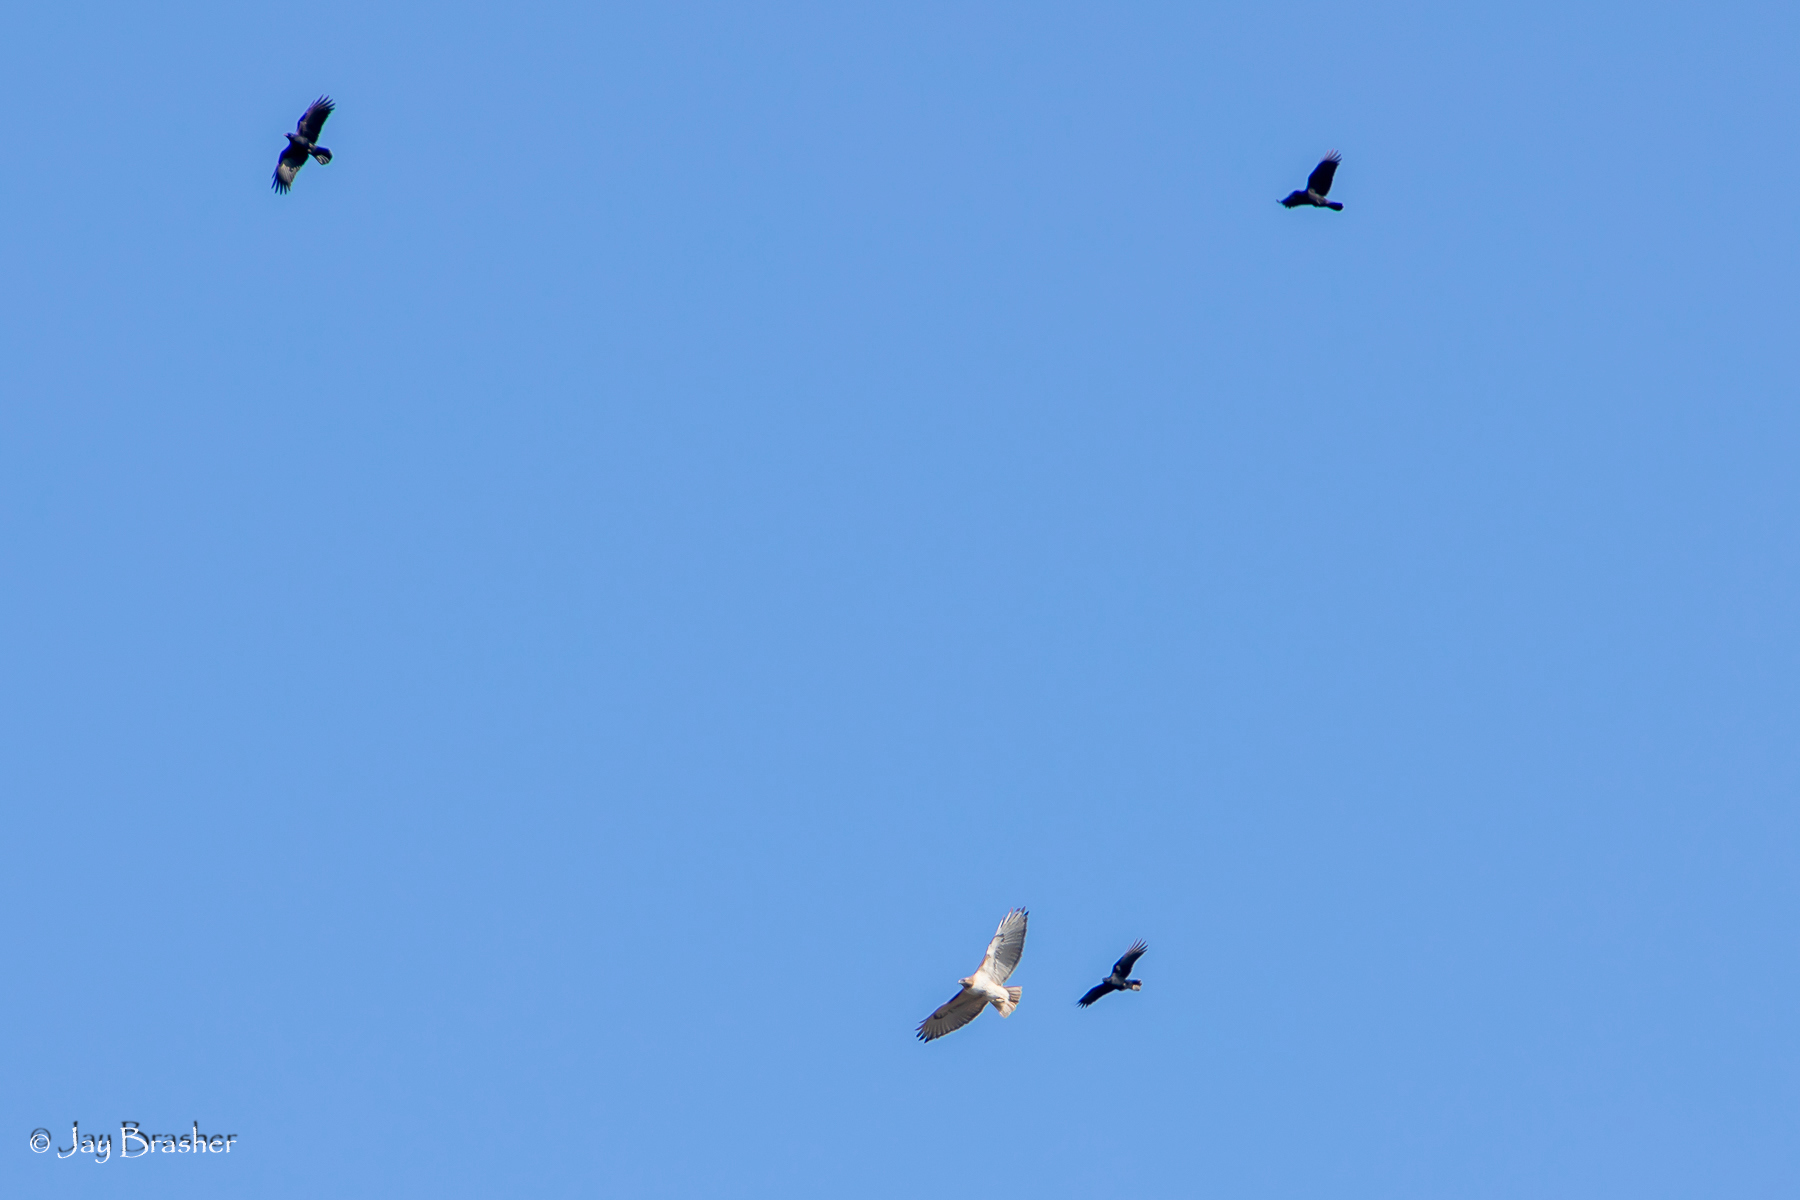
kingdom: Animalia
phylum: Chordata
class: Aves
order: Passeriformes
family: Corvidae
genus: Corvus
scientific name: Corvus brachyrhynchos
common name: American crow
